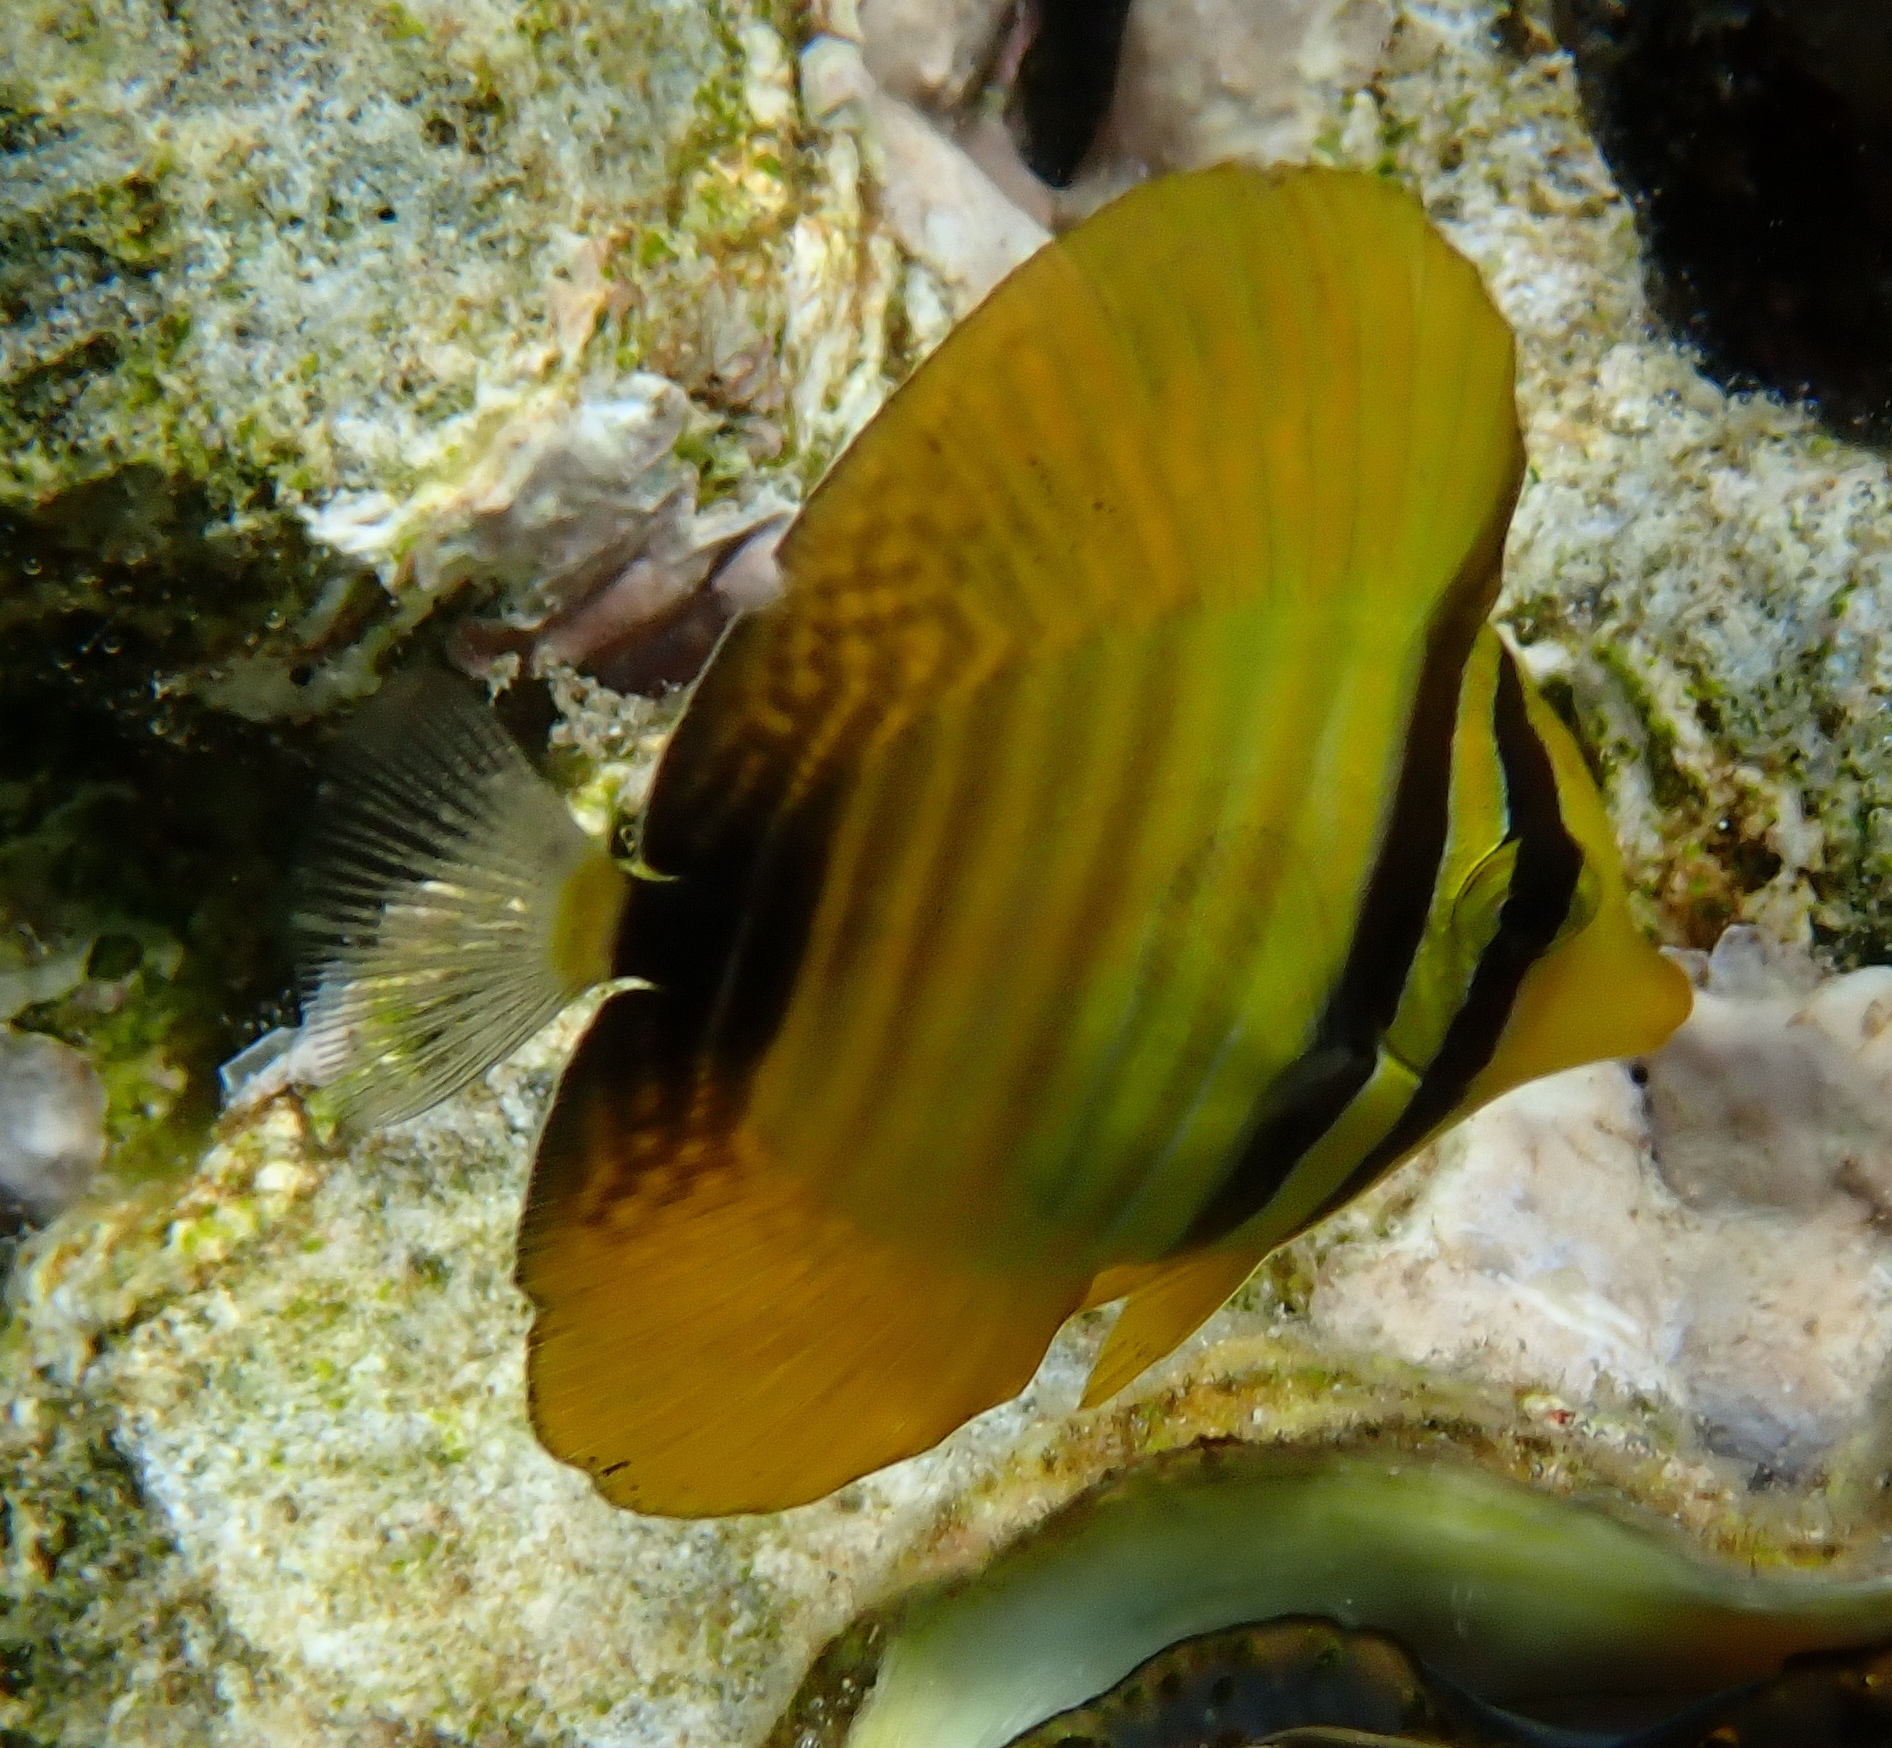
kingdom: Animalia
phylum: Chordata
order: Perciformes
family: Acanthuridae
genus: Zebrasoma
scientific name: Zebrasoma desjardinii
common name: Desjardin's sailfin tang
